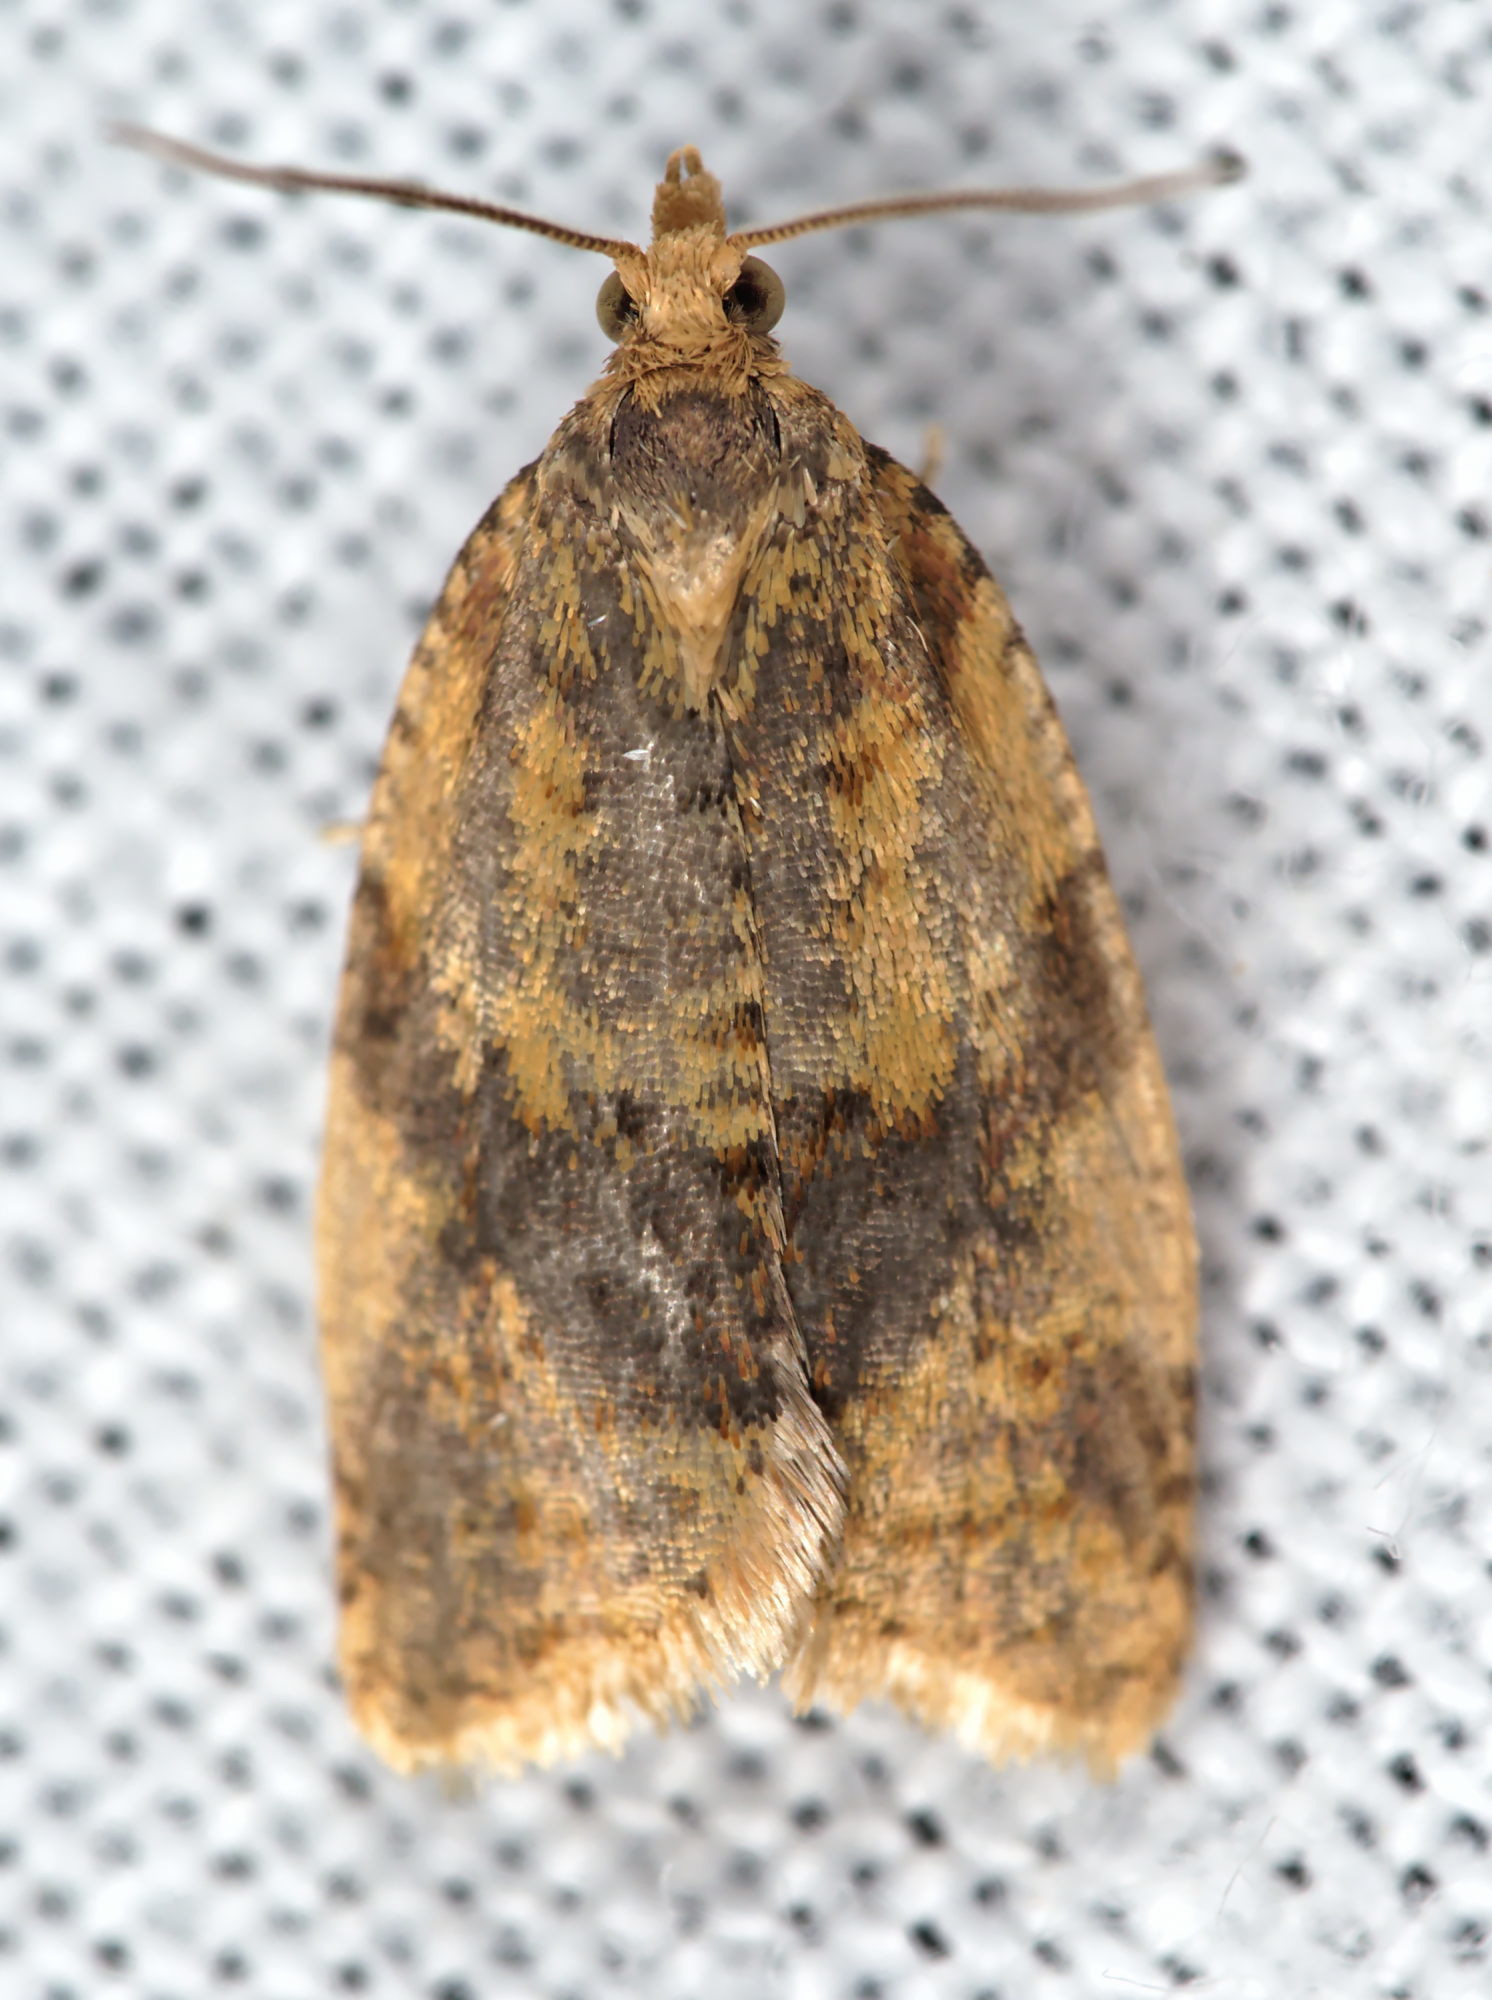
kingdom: Animalia
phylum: Arthropoda
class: Insecta
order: Lepidoptera
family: Tortricidae
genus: Epagoge
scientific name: Epagoge grotiana
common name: Brown-barred twist
